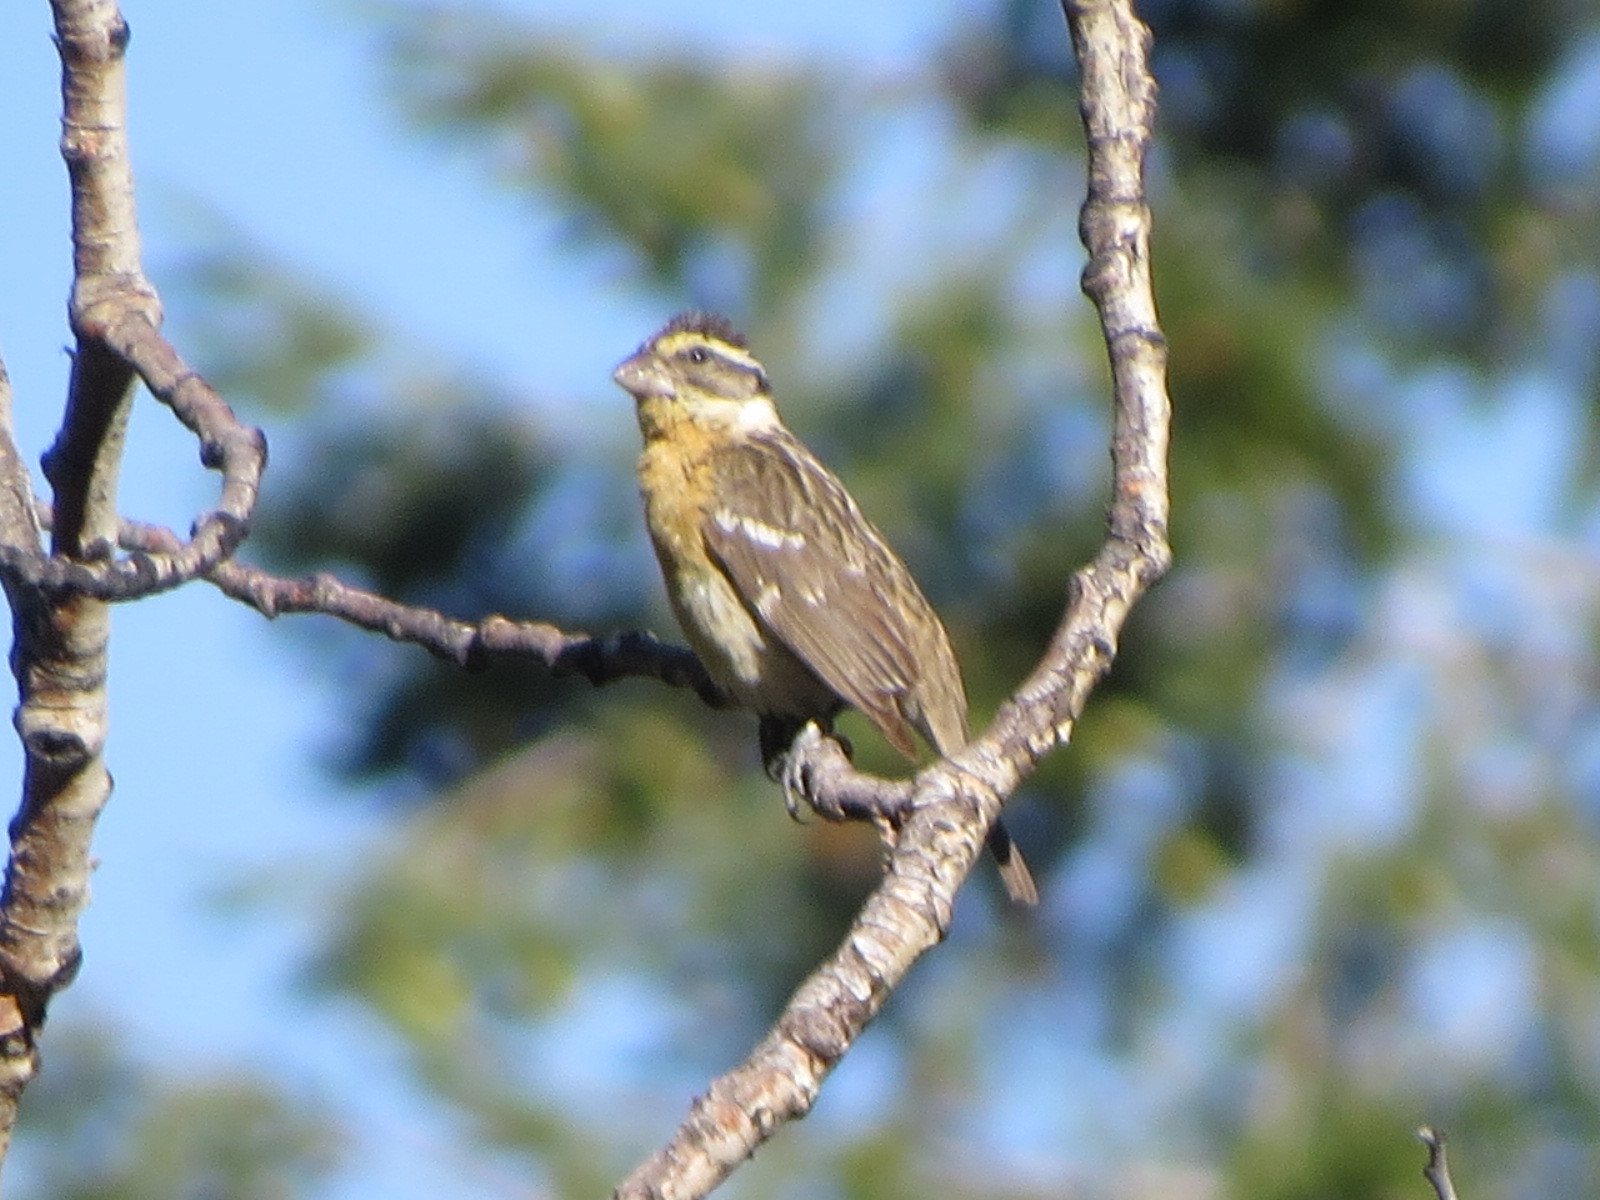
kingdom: Animalia
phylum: Chordata
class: Aves
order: Passeriformes
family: Cardinalidae
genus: Pheucticus
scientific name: Pheucticus melanocephalus
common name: Black-headed grosbeak
